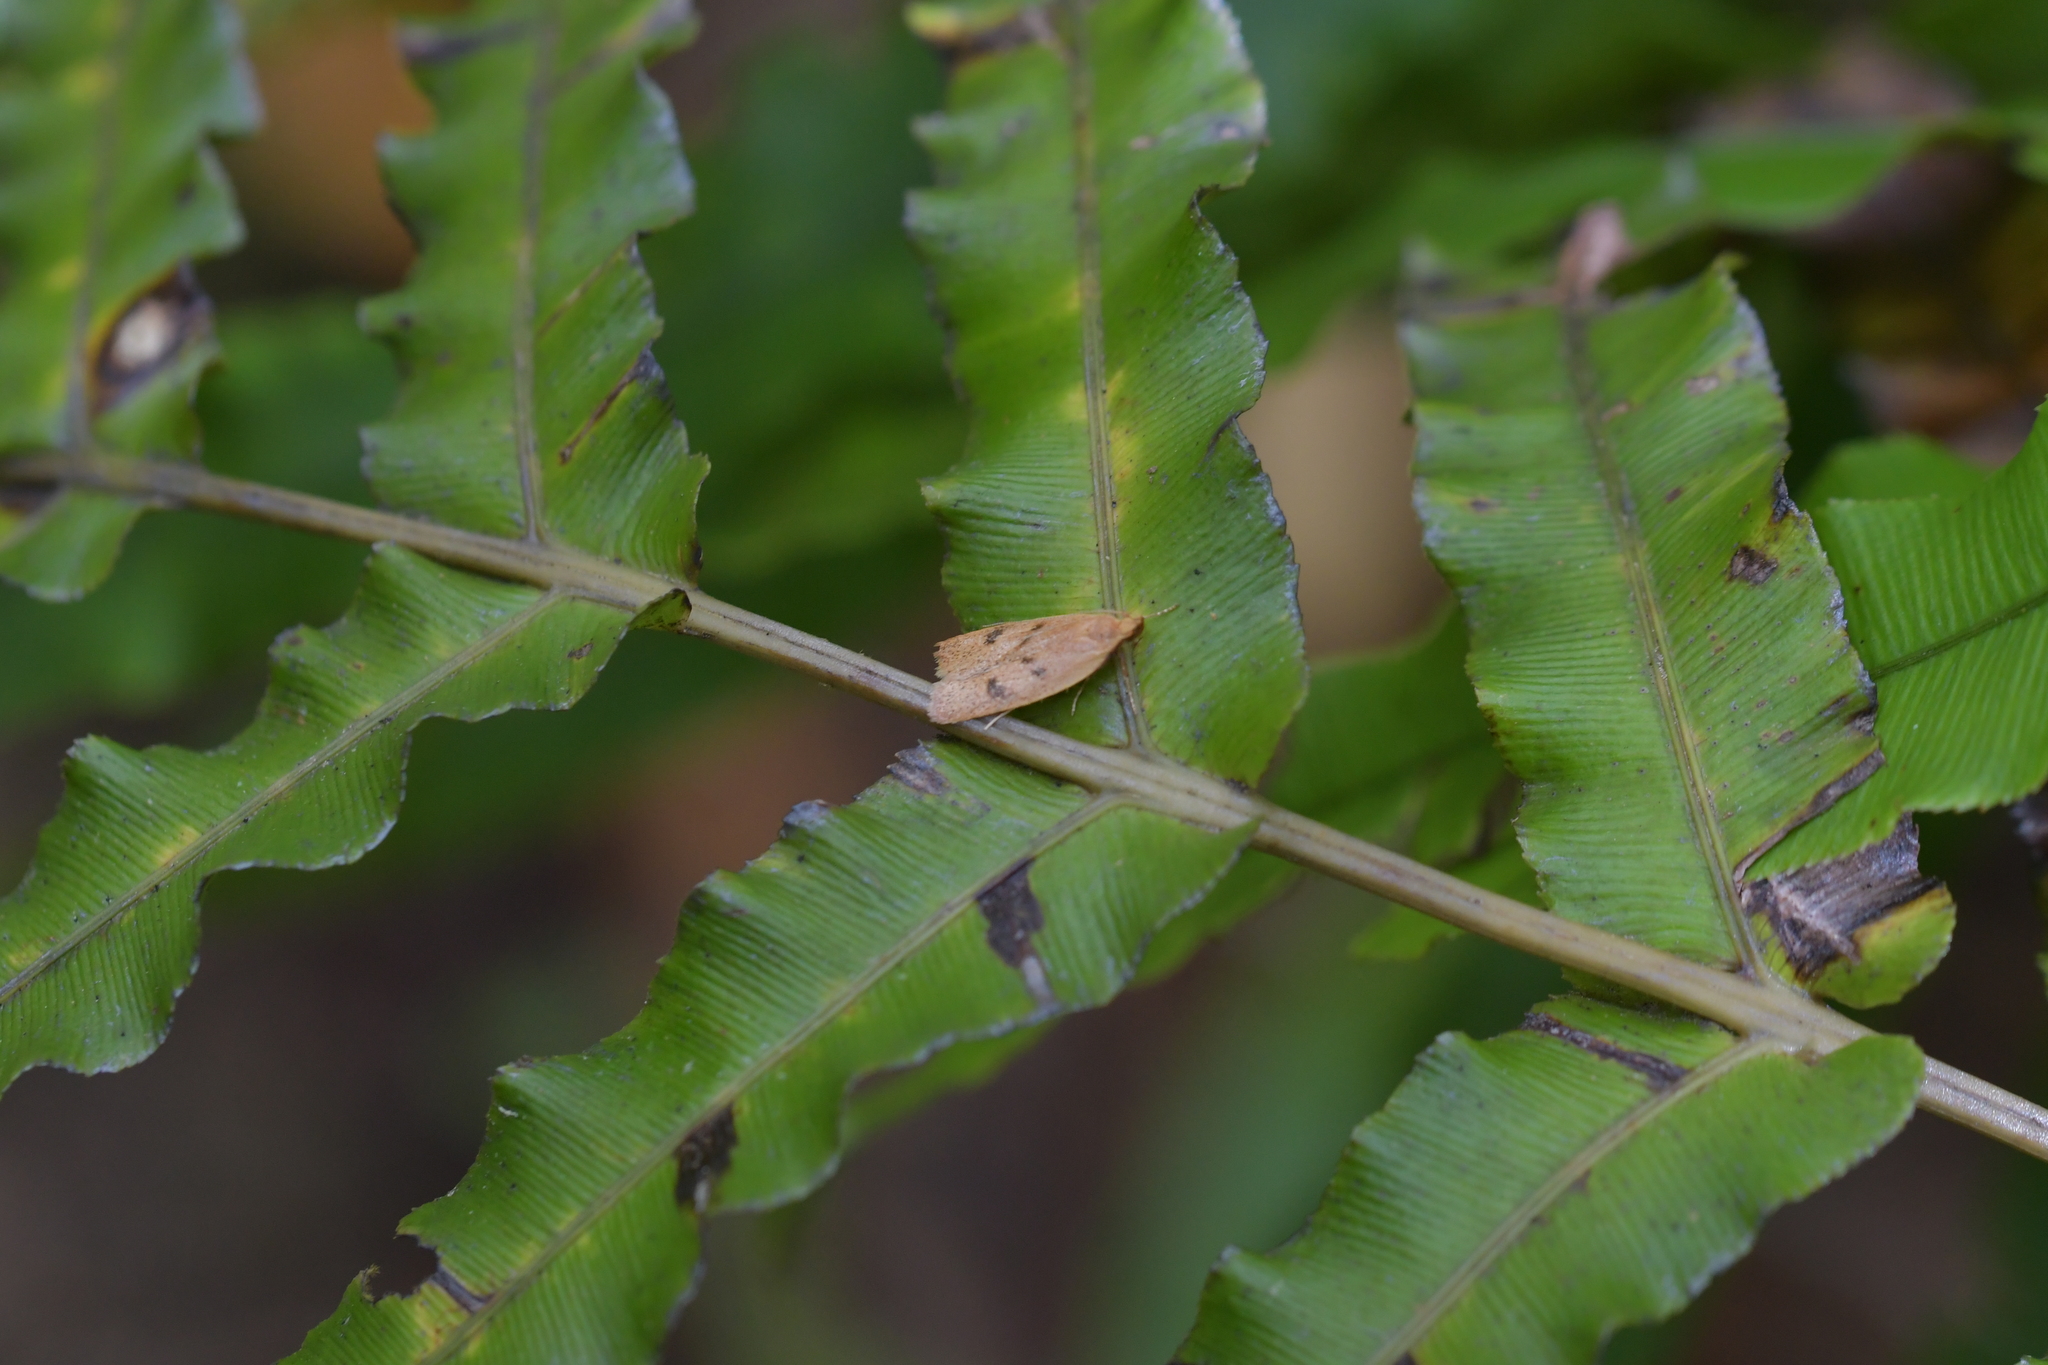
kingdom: Animalia
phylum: Arthropoda
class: Insecta
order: Lepidoptera
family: Oecophoridae
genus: Gymnobathra
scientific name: Gymnobathra sarcoxantha
